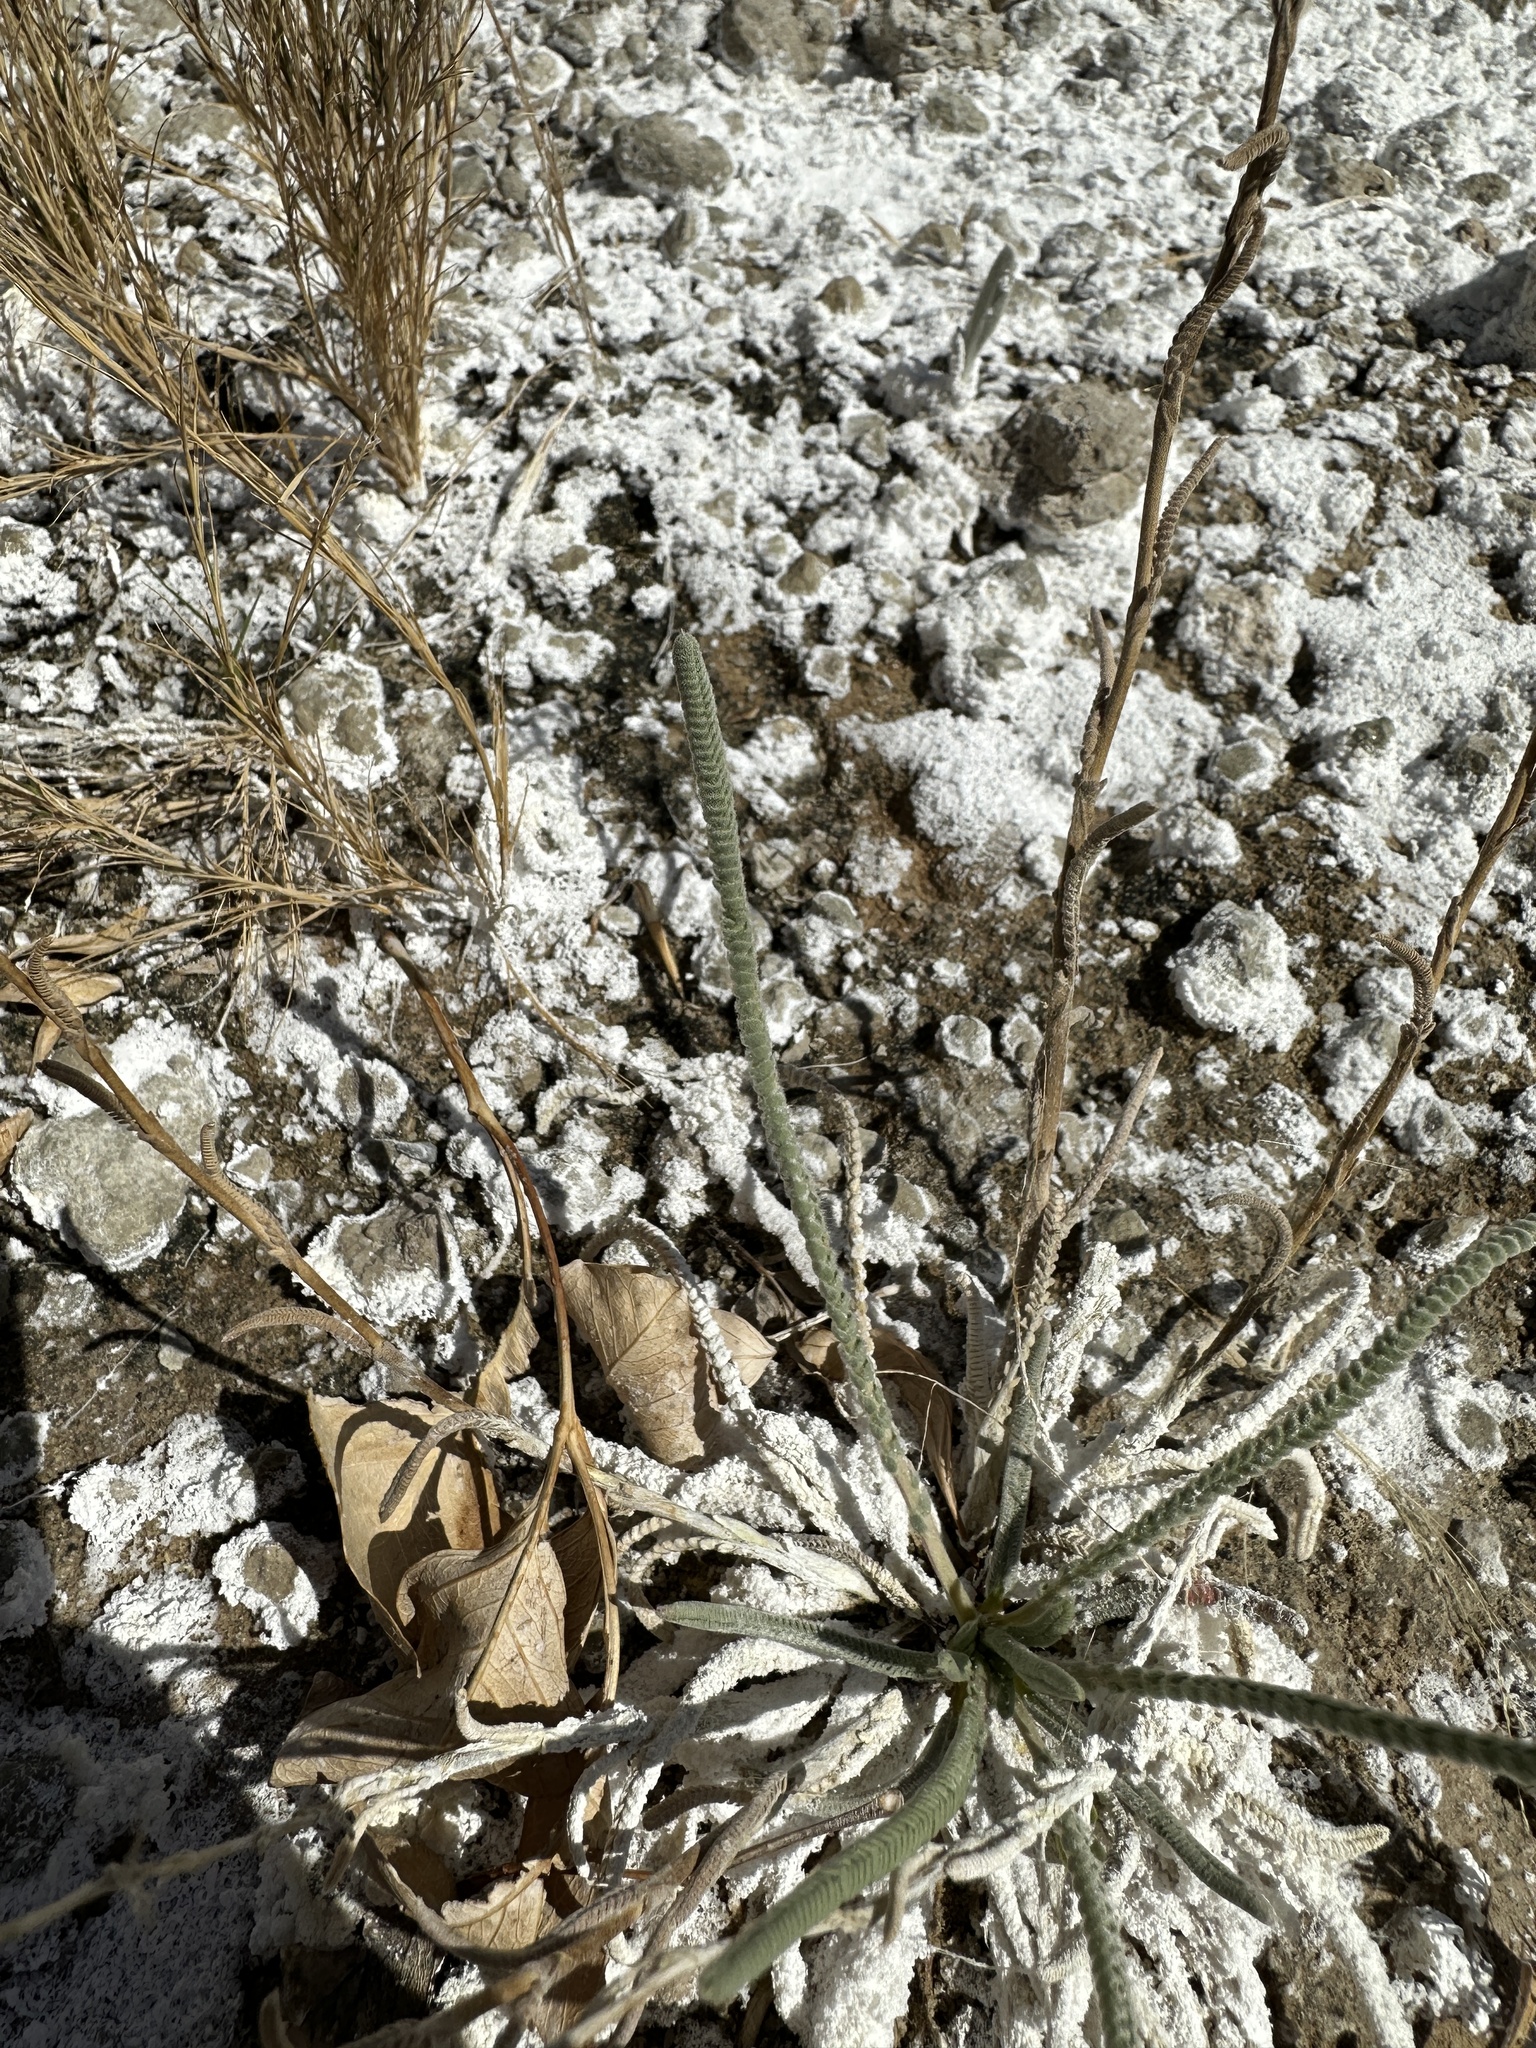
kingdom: Plantae
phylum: Tracheophyta
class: Magnoliopsida
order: Rosales
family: Rosaceae
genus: Potentilla
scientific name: Potentilla kingii
